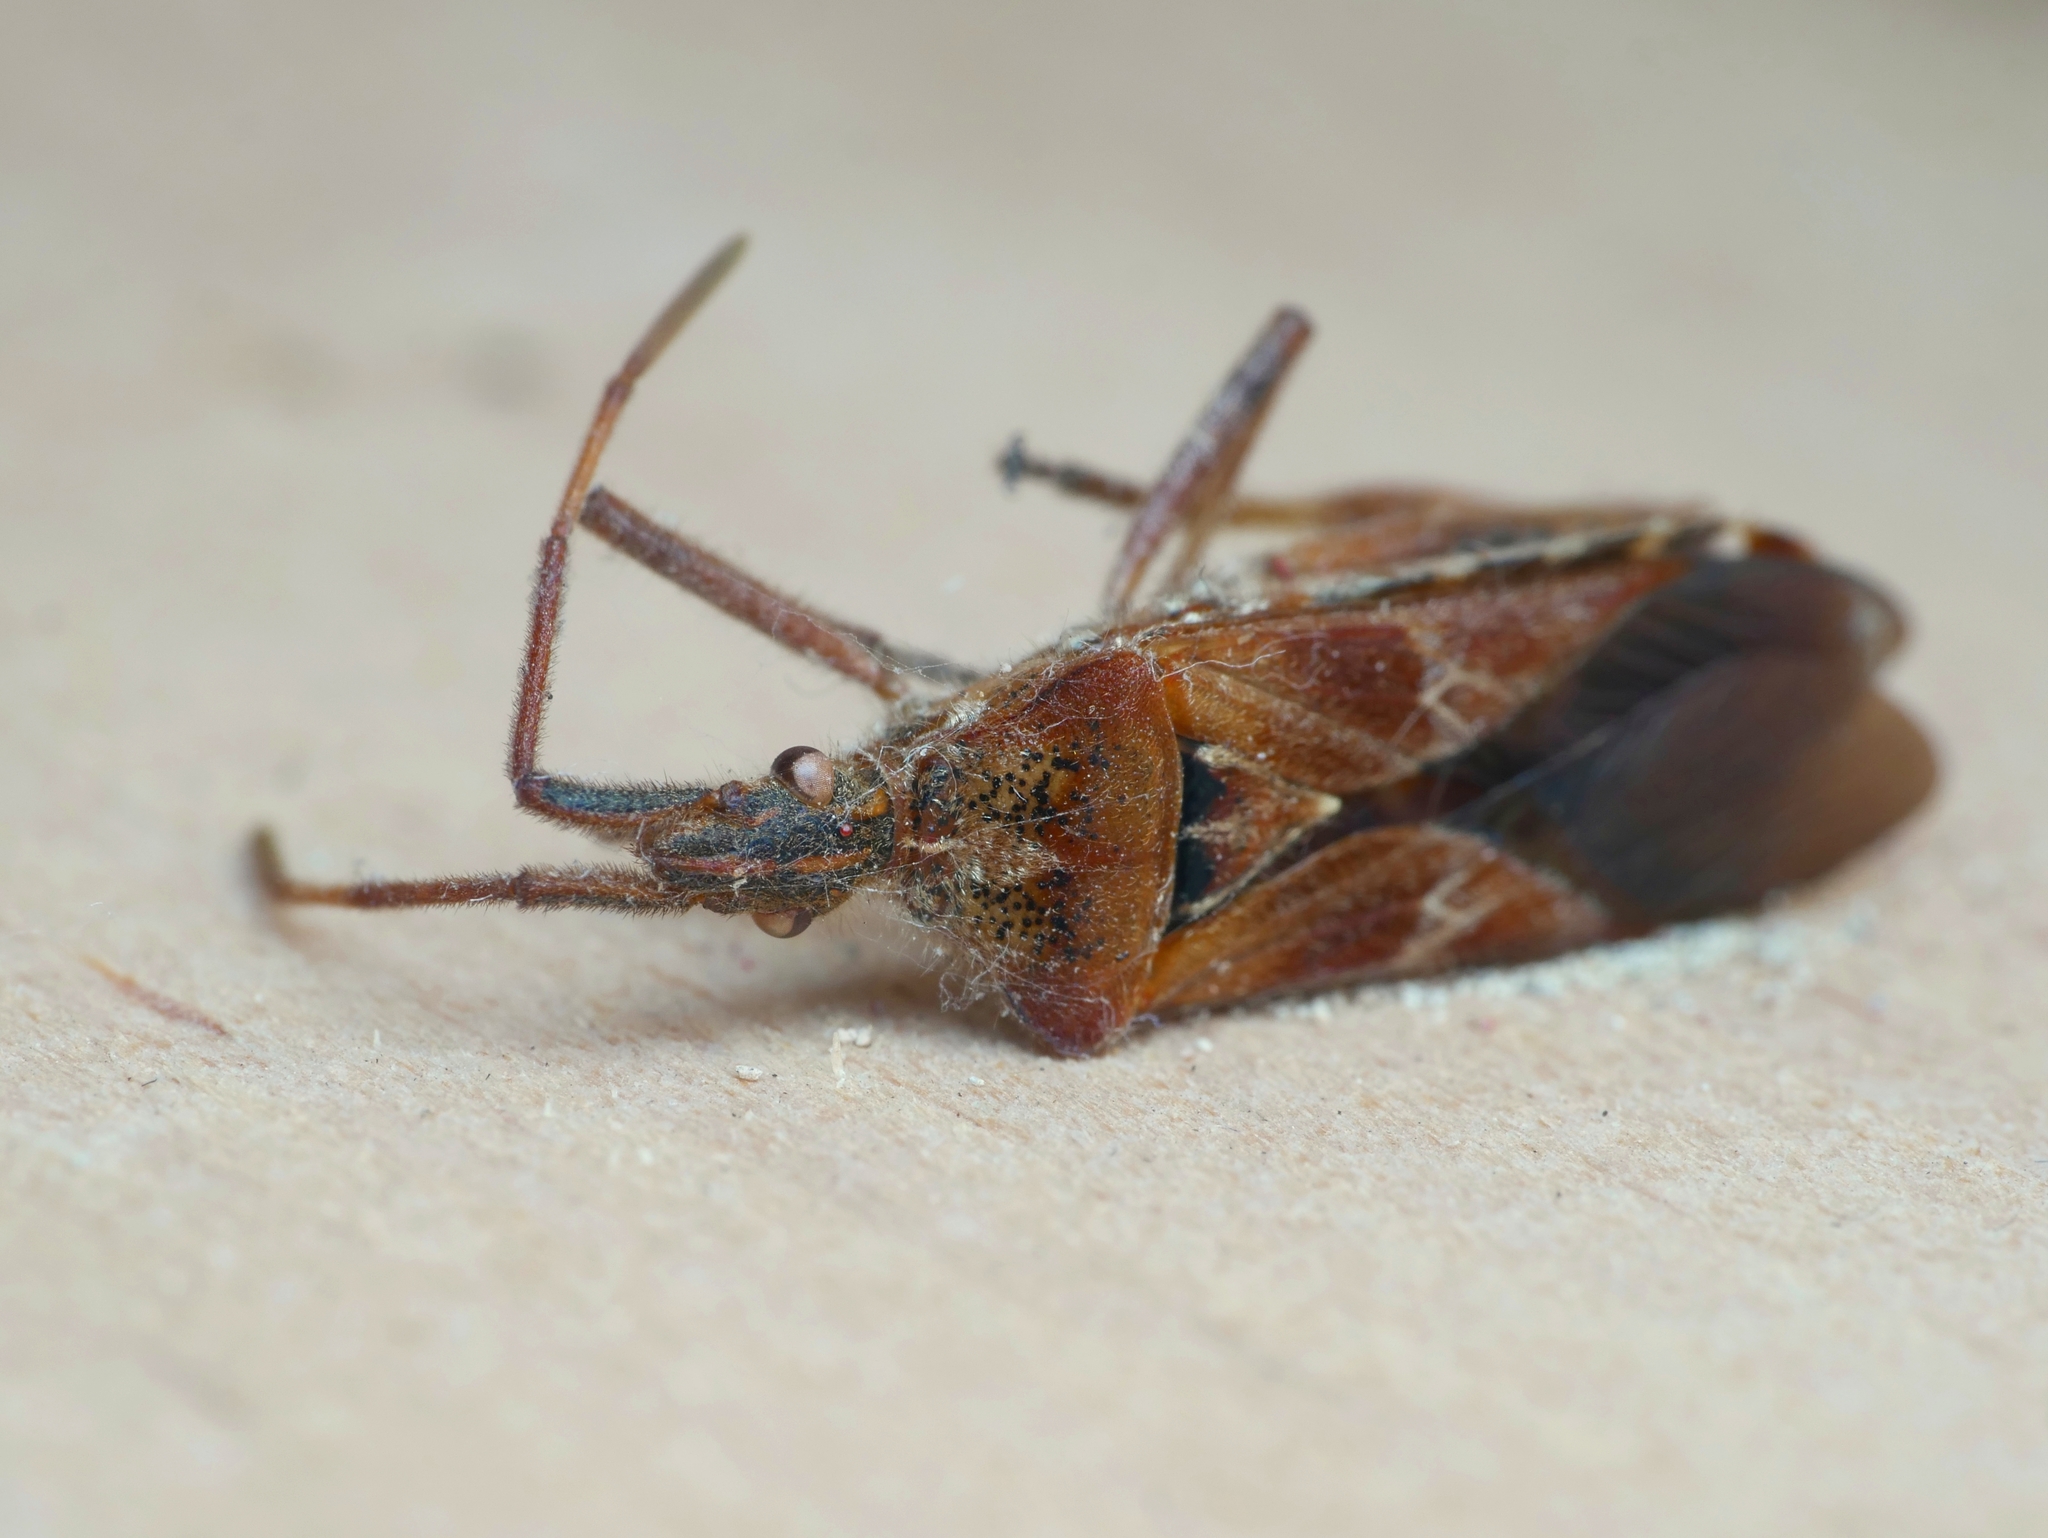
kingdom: Animalia
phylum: Arthropoda
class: Insecta
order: Hemiptera
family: Coreidae
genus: Leptoglossus
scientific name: Leptoglossus occidentalis
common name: Western conifer-seed bug
